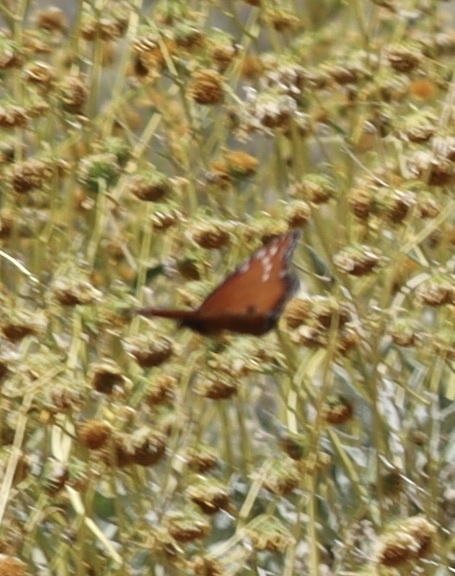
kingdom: Animalia
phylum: Arthropoda
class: Insecta
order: Lepidoptera
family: Nymphalidae
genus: Danaus
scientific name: Danaus gilippus
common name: Queen
